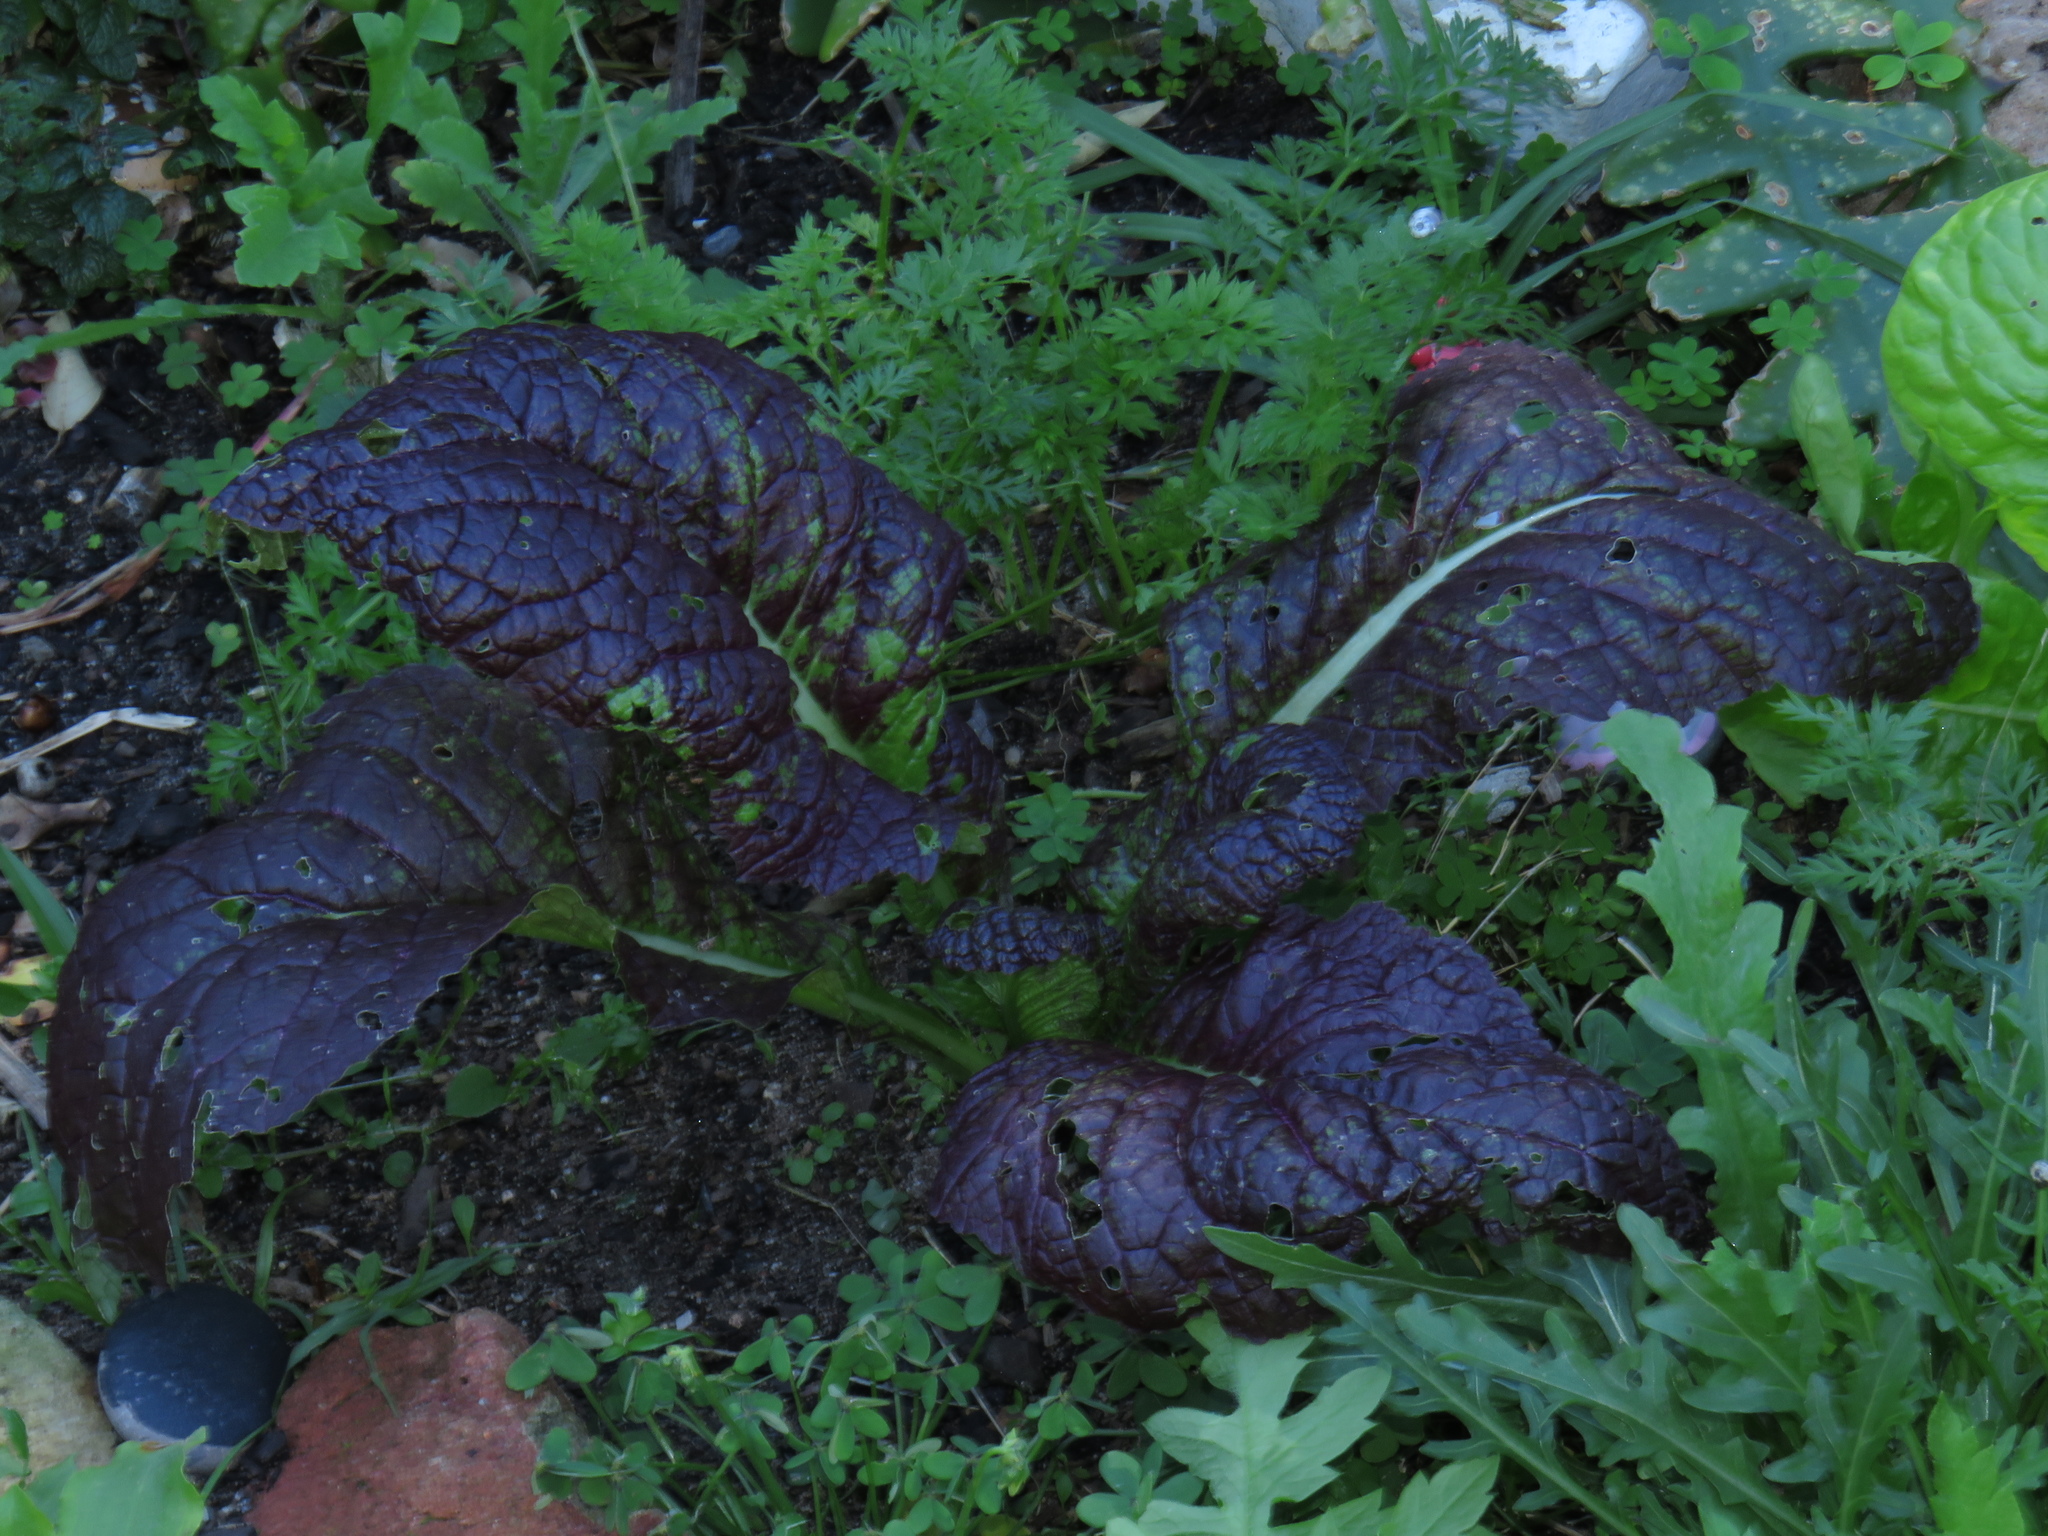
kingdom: Plantae
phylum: Tracheophyta
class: Magnoliopsida
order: Brassicales
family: Brassicaceae
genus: Brassica
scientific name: Brassica rapa
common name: Field mustard
